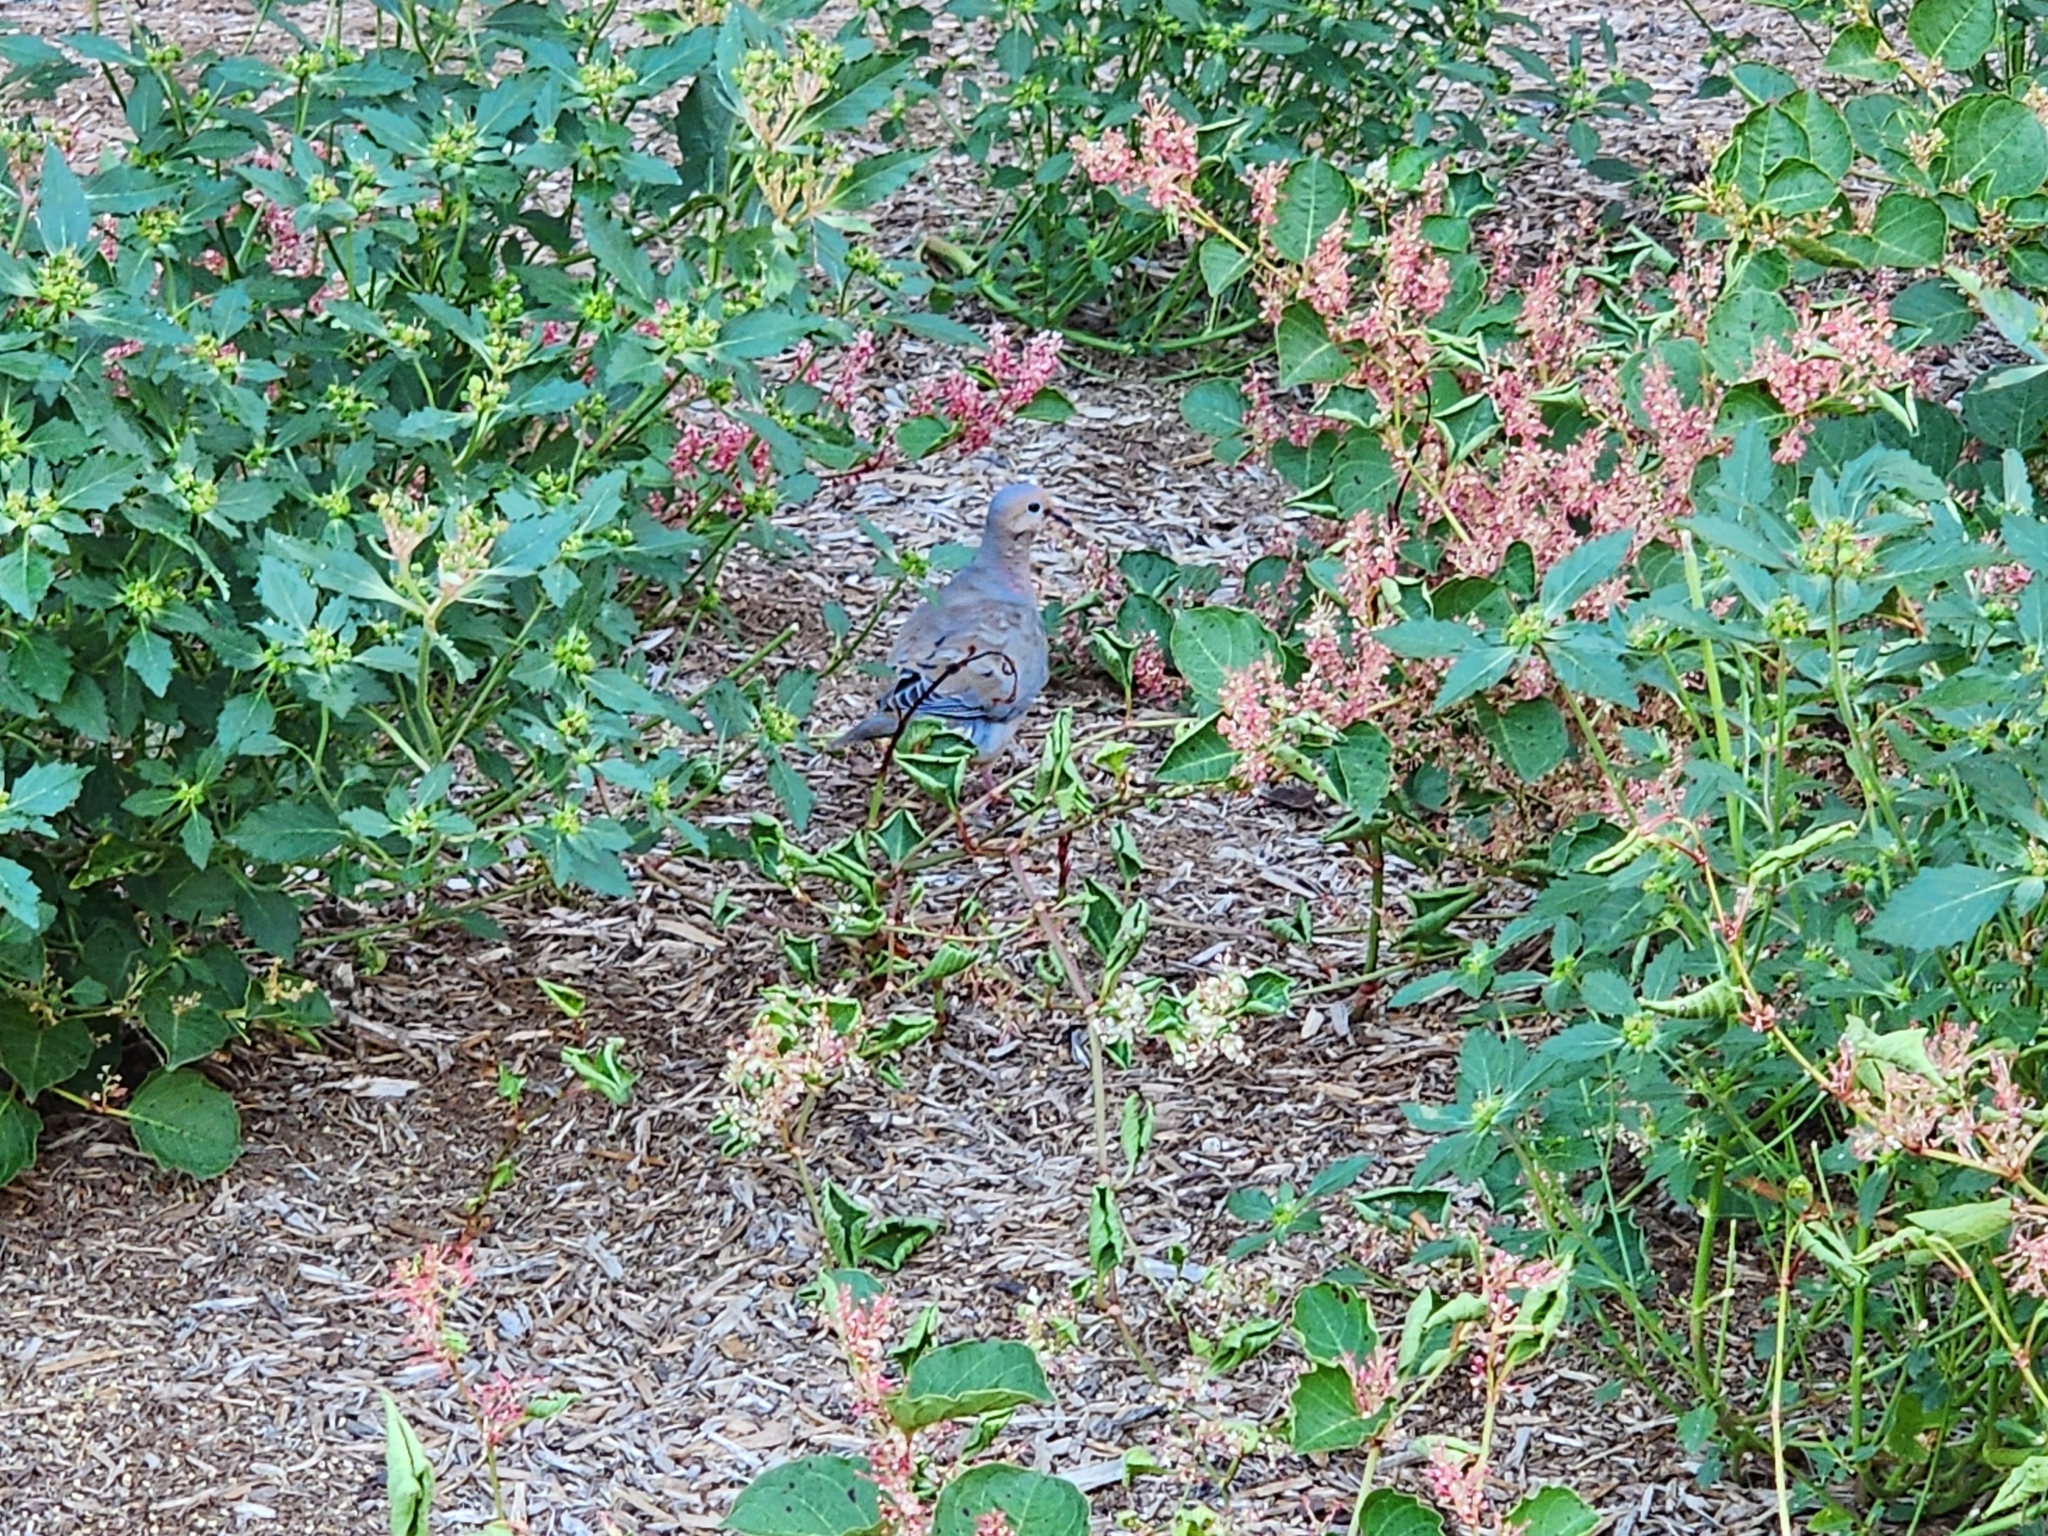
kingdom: Animalia
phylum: Chordata
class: Aves
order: Columbiformes
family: Columbidae
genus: Zenaida
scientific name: Zenaida macroura
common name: Mourning dove
